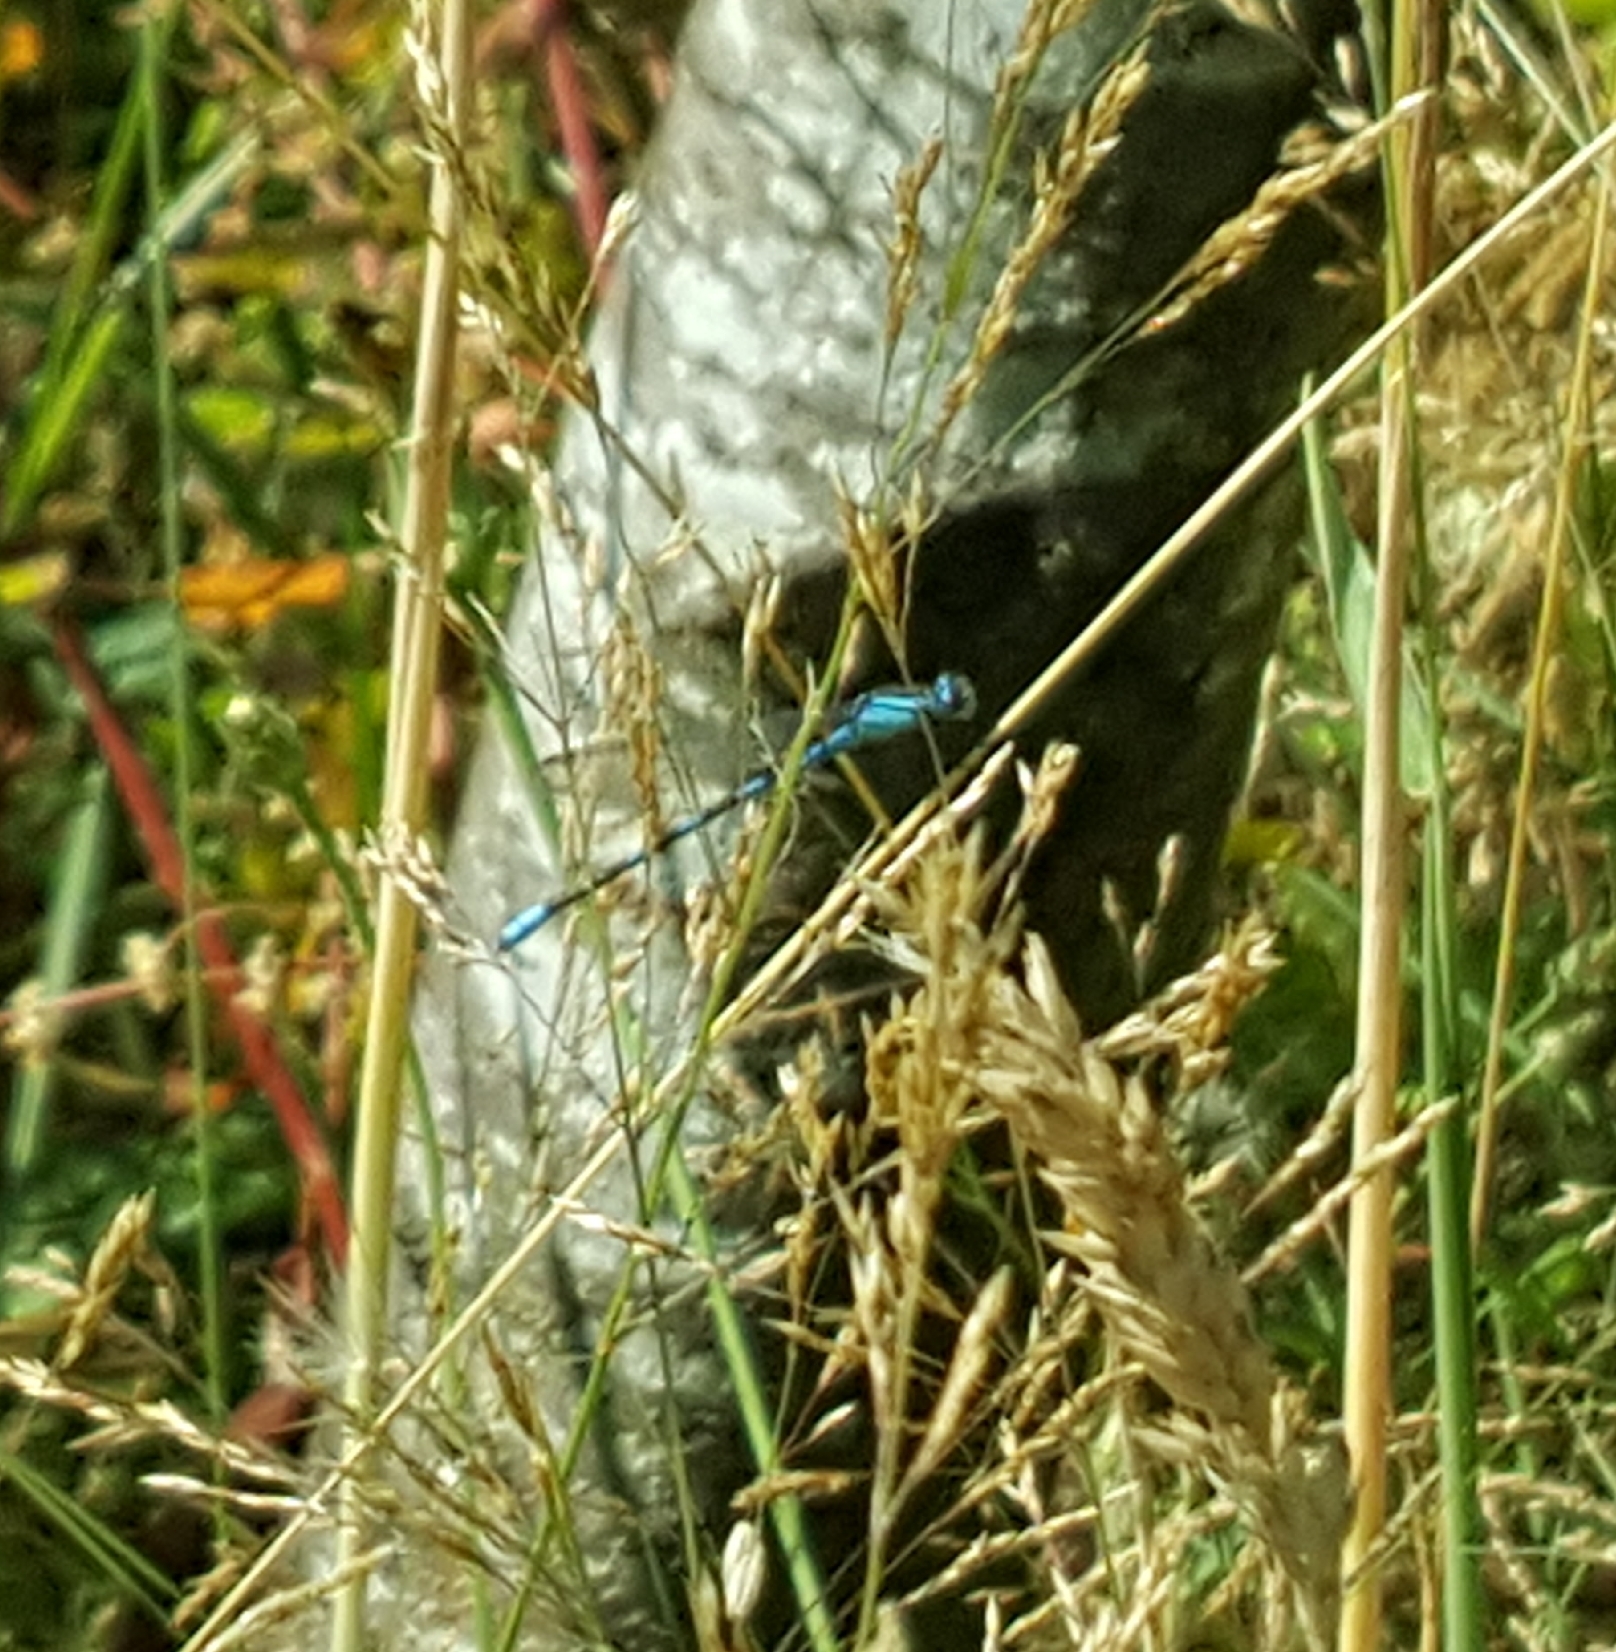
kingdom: Animalia
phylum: Arthropoda
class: Insecta
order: Odonata
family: Coenagrionidae
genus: Enallagma
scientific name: Enallagma carunculatum
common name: Tule bluet
